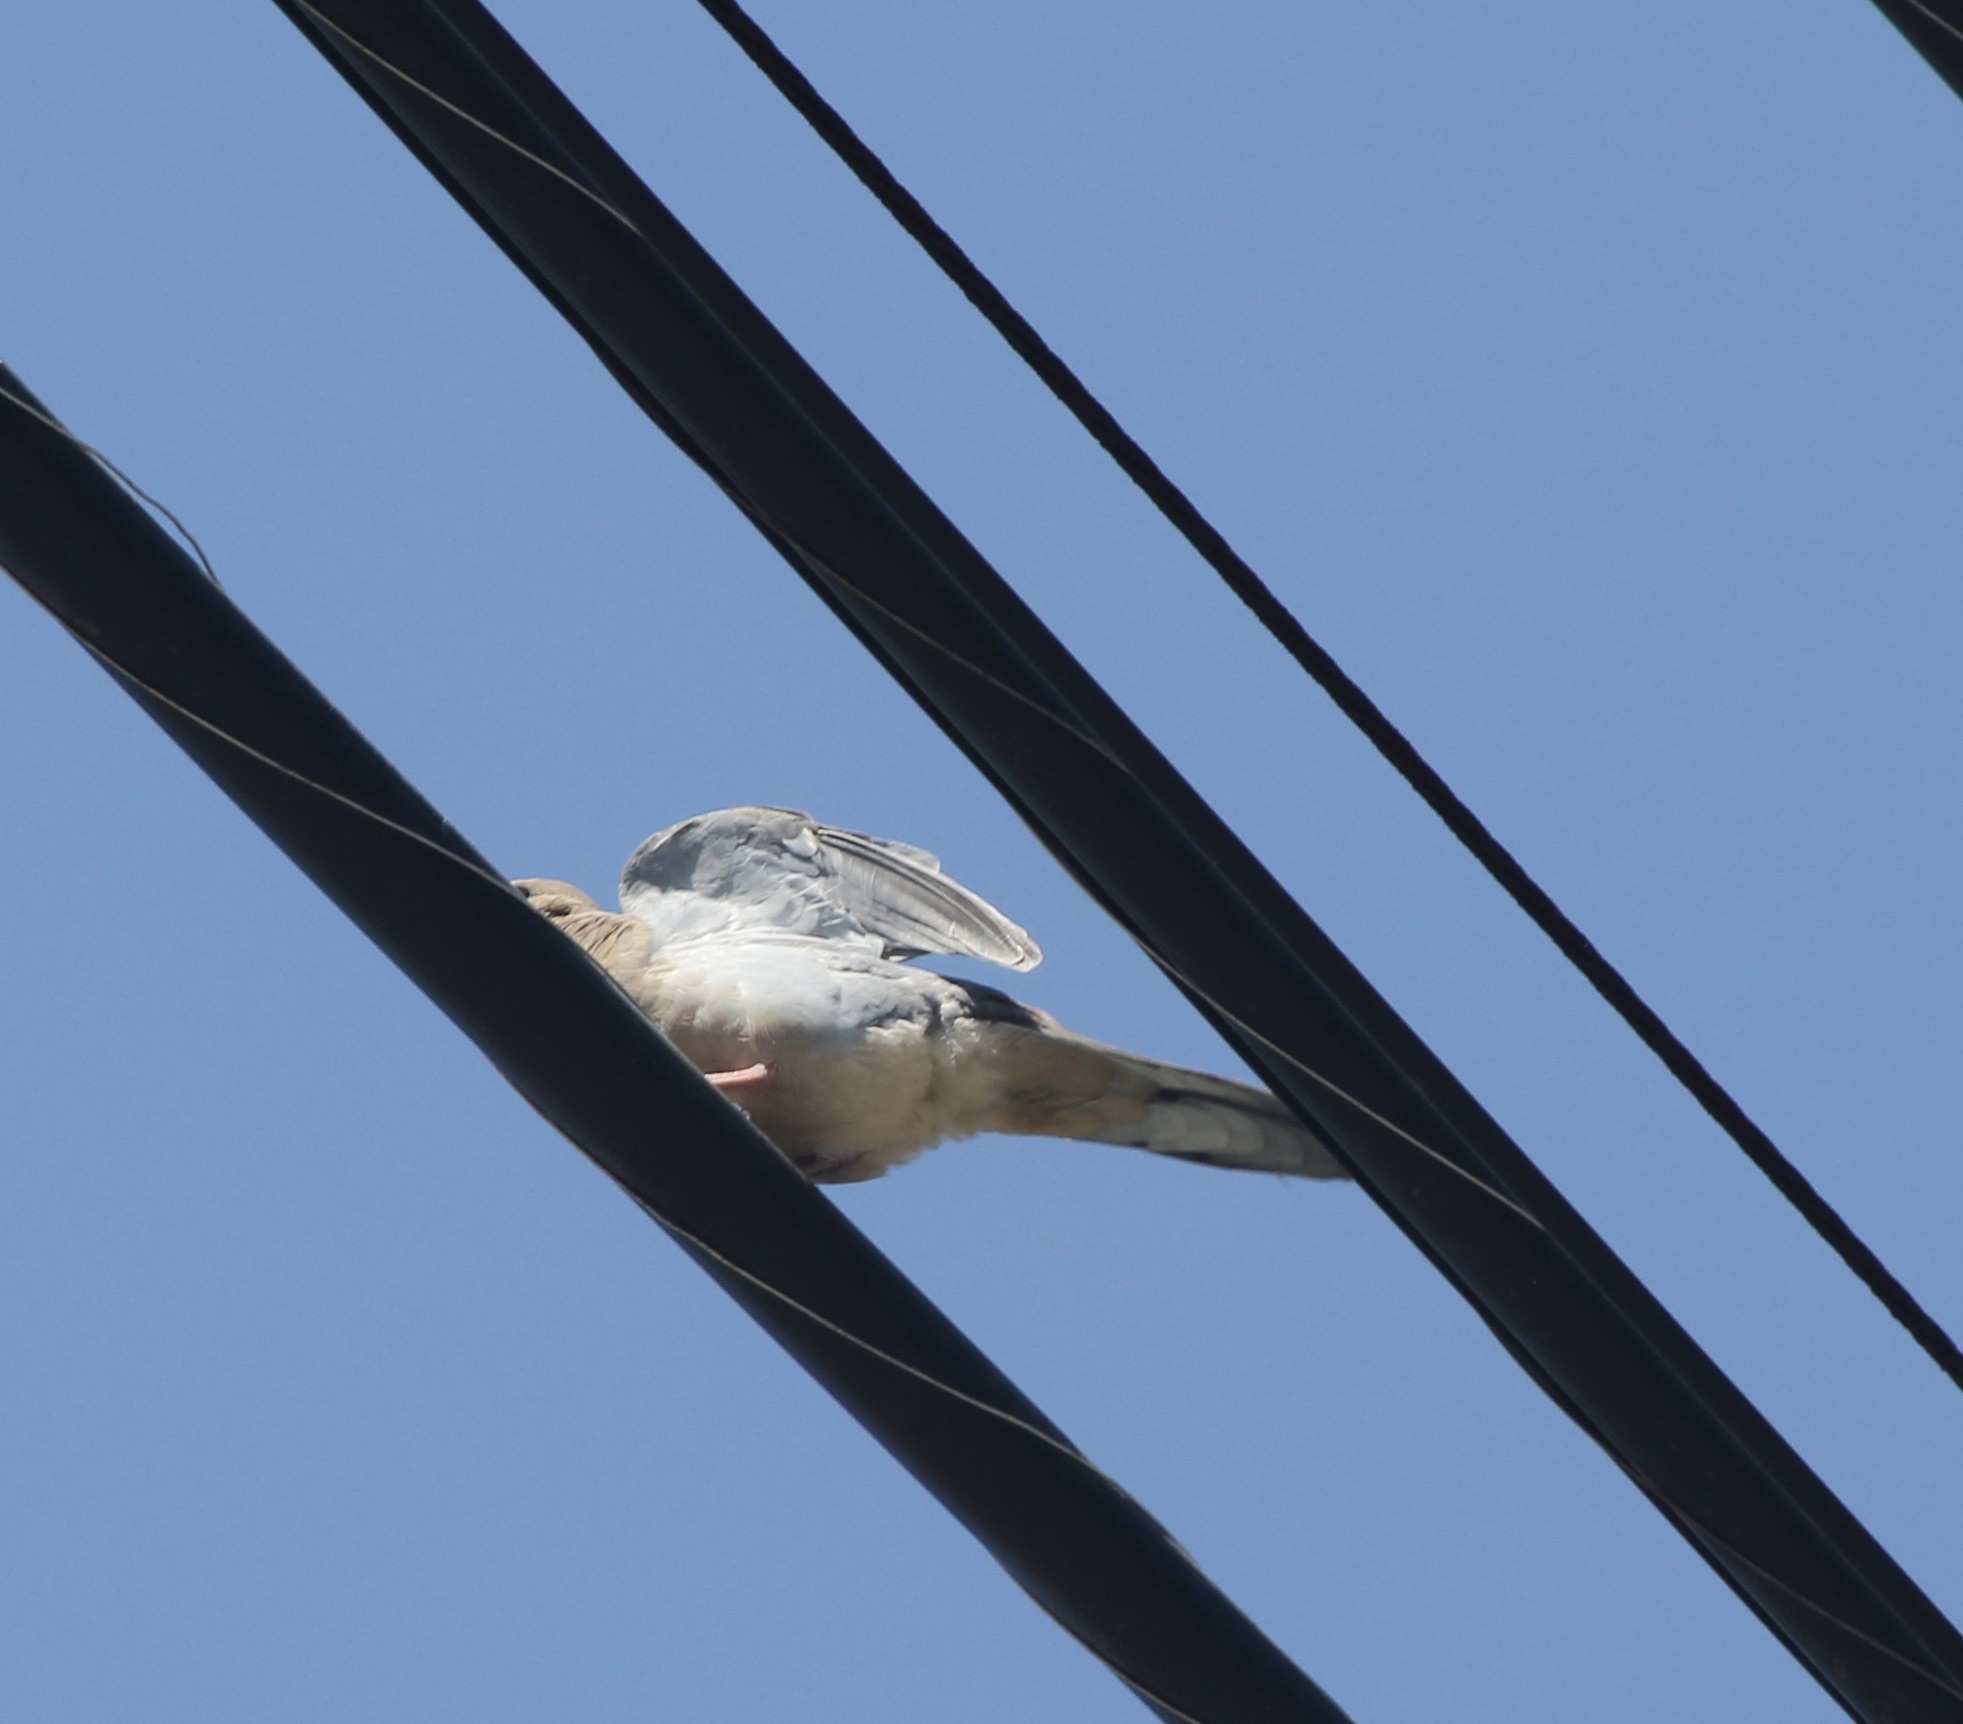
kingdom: Animalia
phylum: Chordata
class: Aves
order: Columbiformes
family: Columbidae
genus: Zenaida
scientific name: Zenaida macroura
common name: Mourning dove
